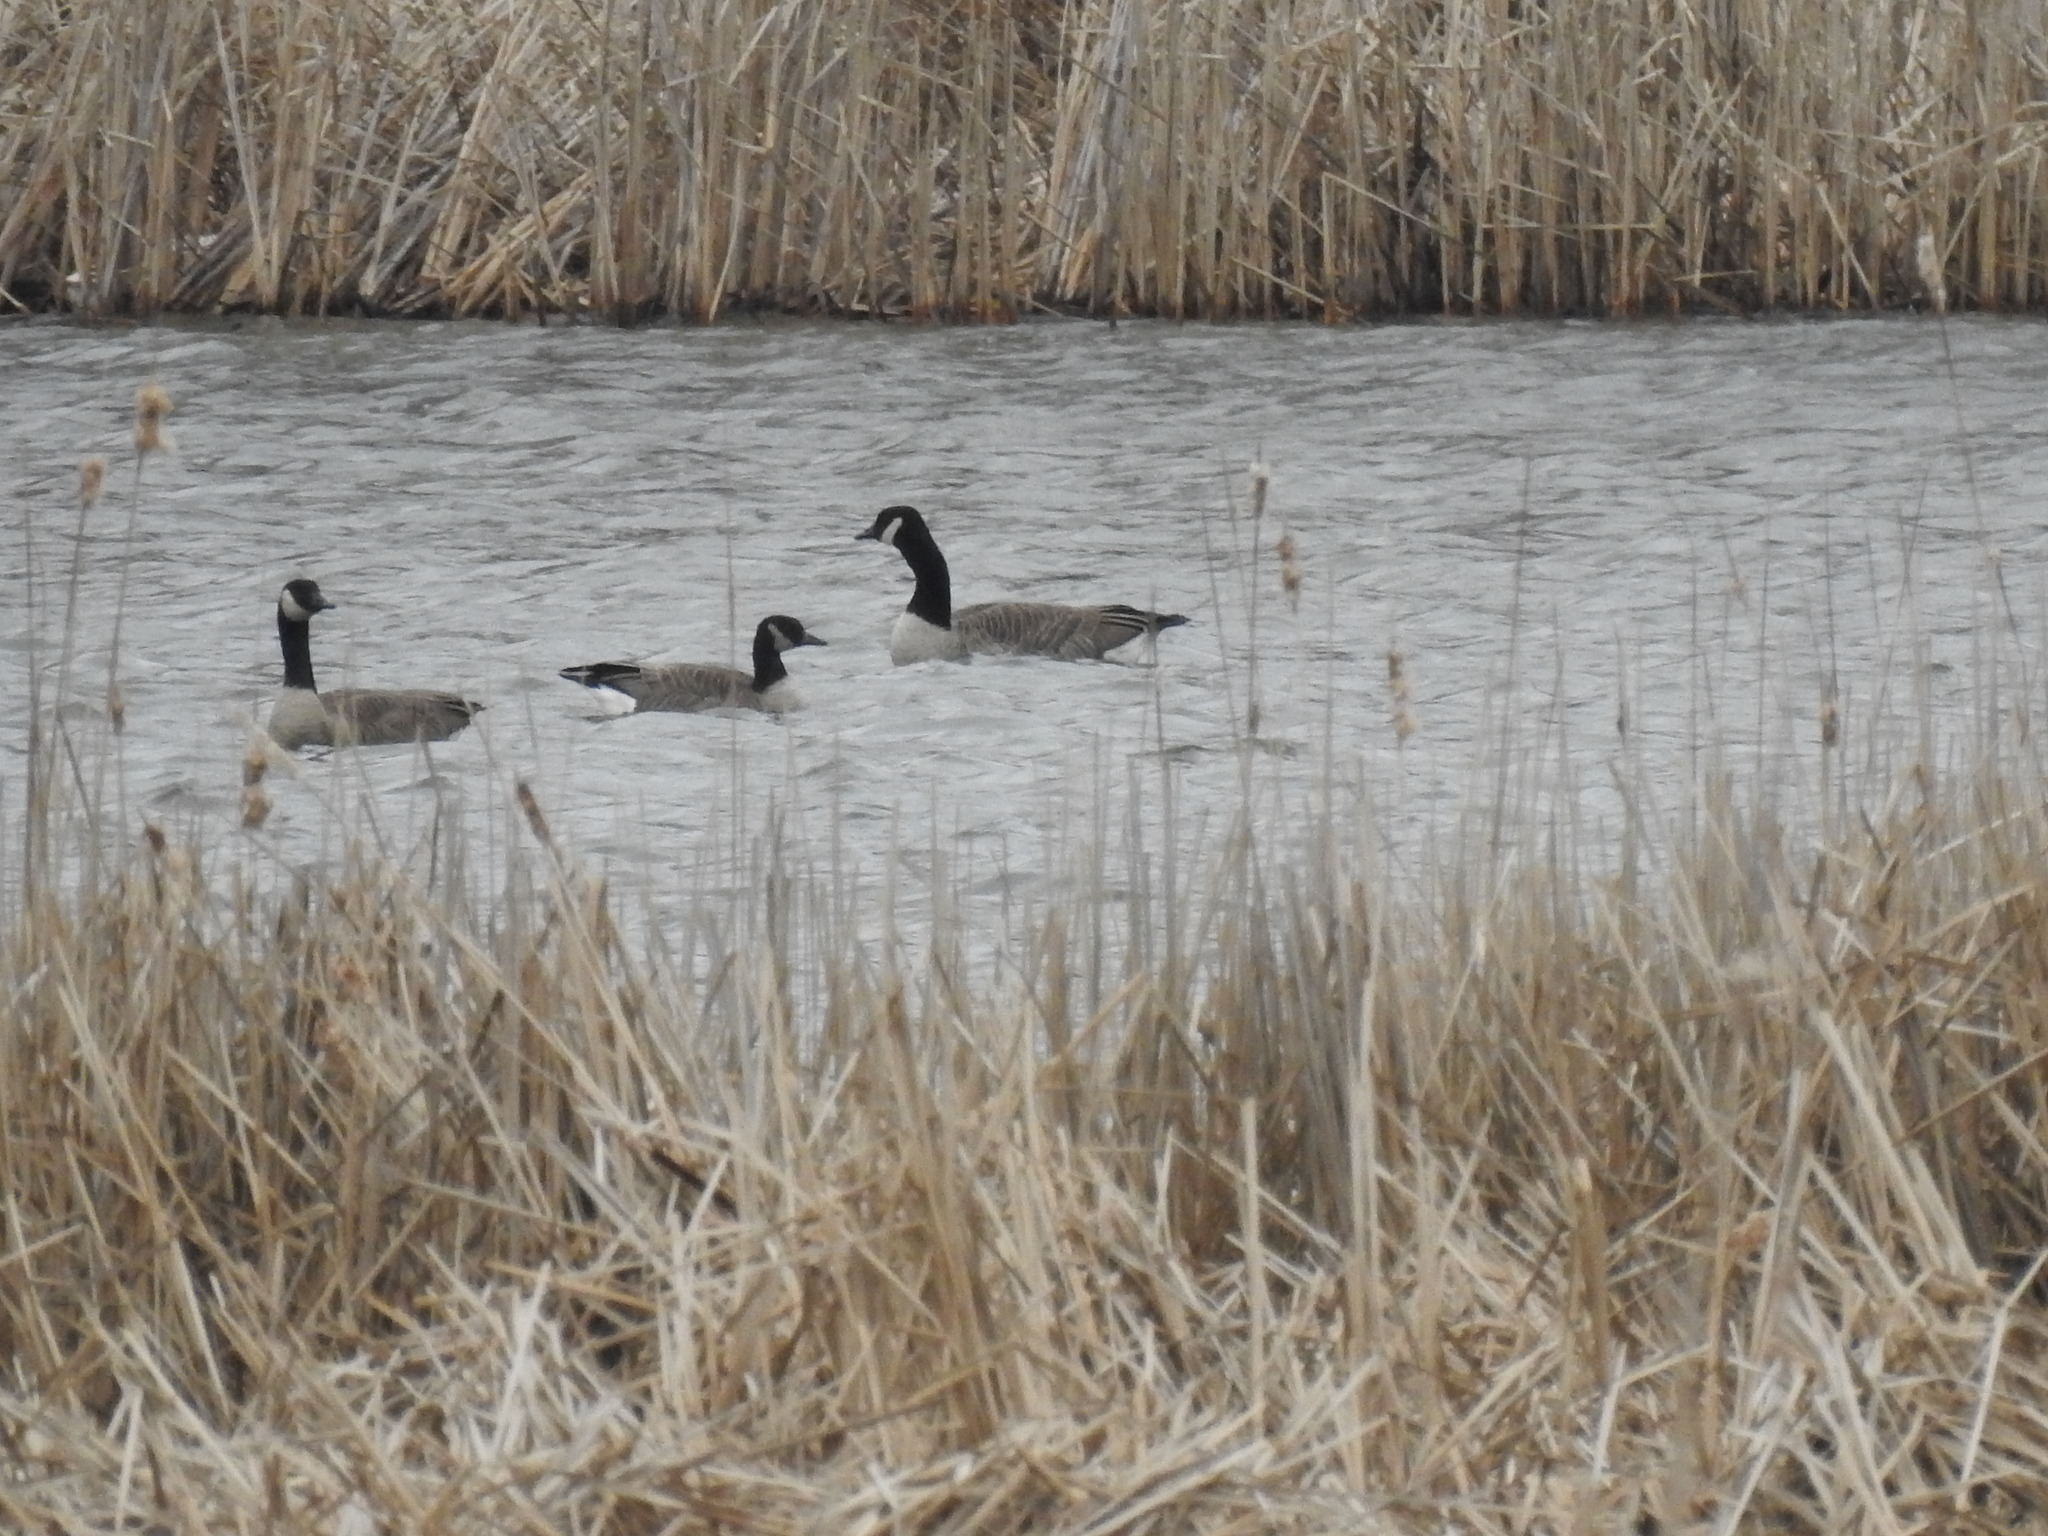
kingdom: Animalia
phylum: Chordata
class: Aves
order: Anseriformes
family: Anatidae
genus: Branta
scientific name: Branta canadensis
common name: Canada goose
